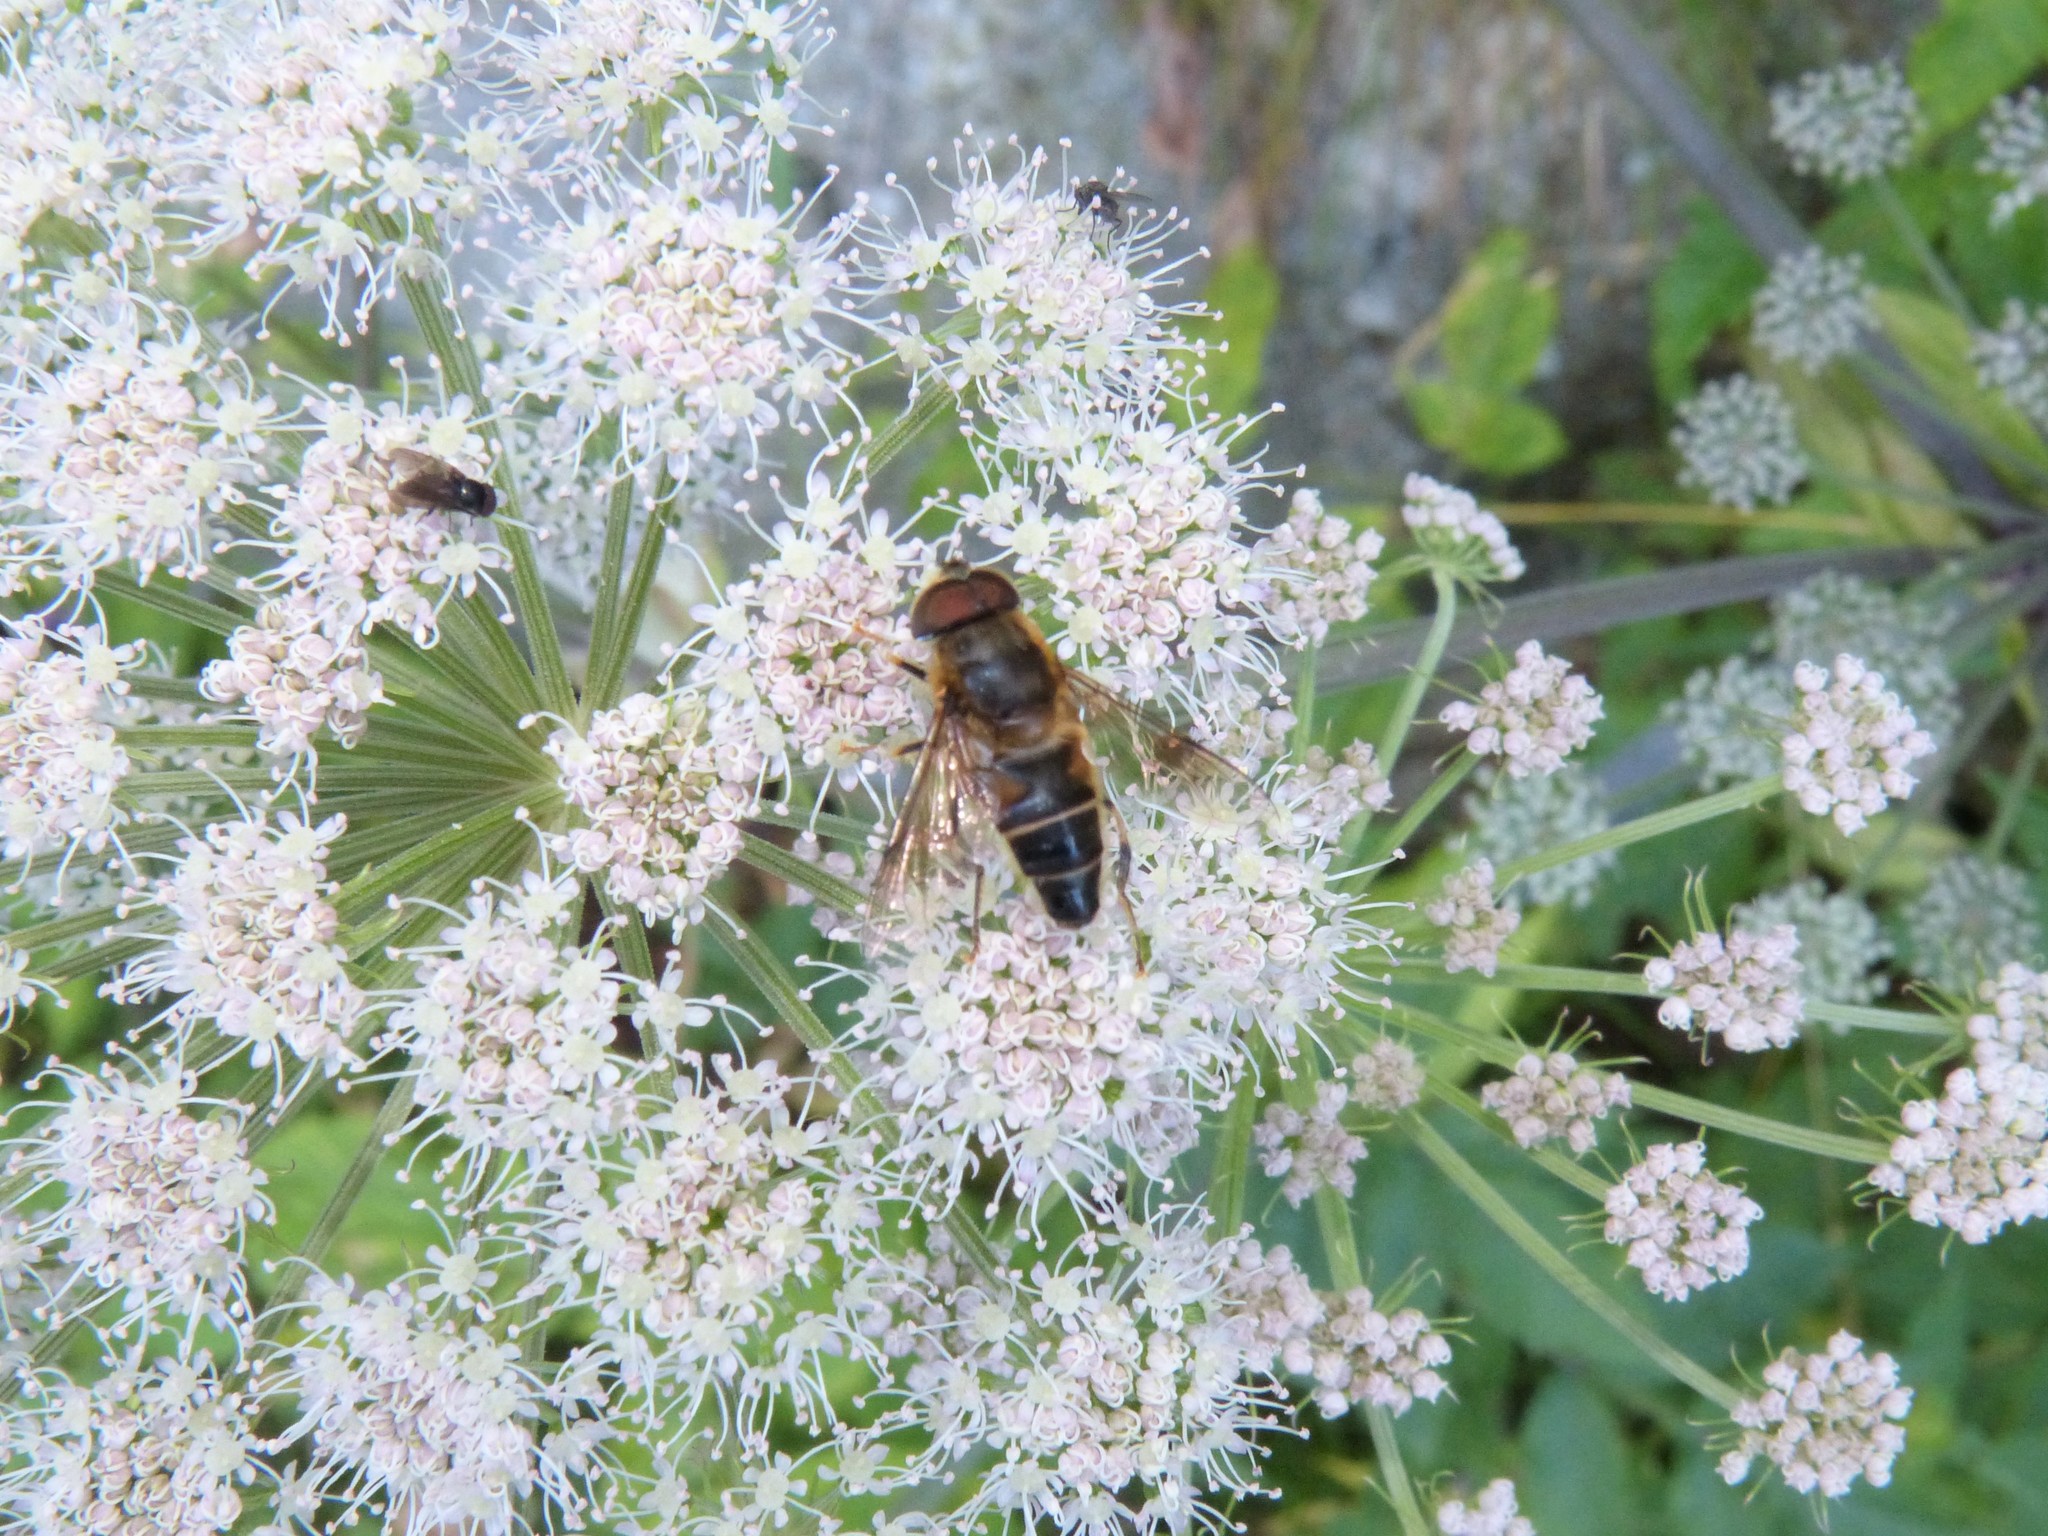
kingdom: Animalia
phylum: Arthropoda
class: Insecta
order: Diptera
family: Syrphidae
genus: Eristalis
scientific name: Eristalis pertinax
